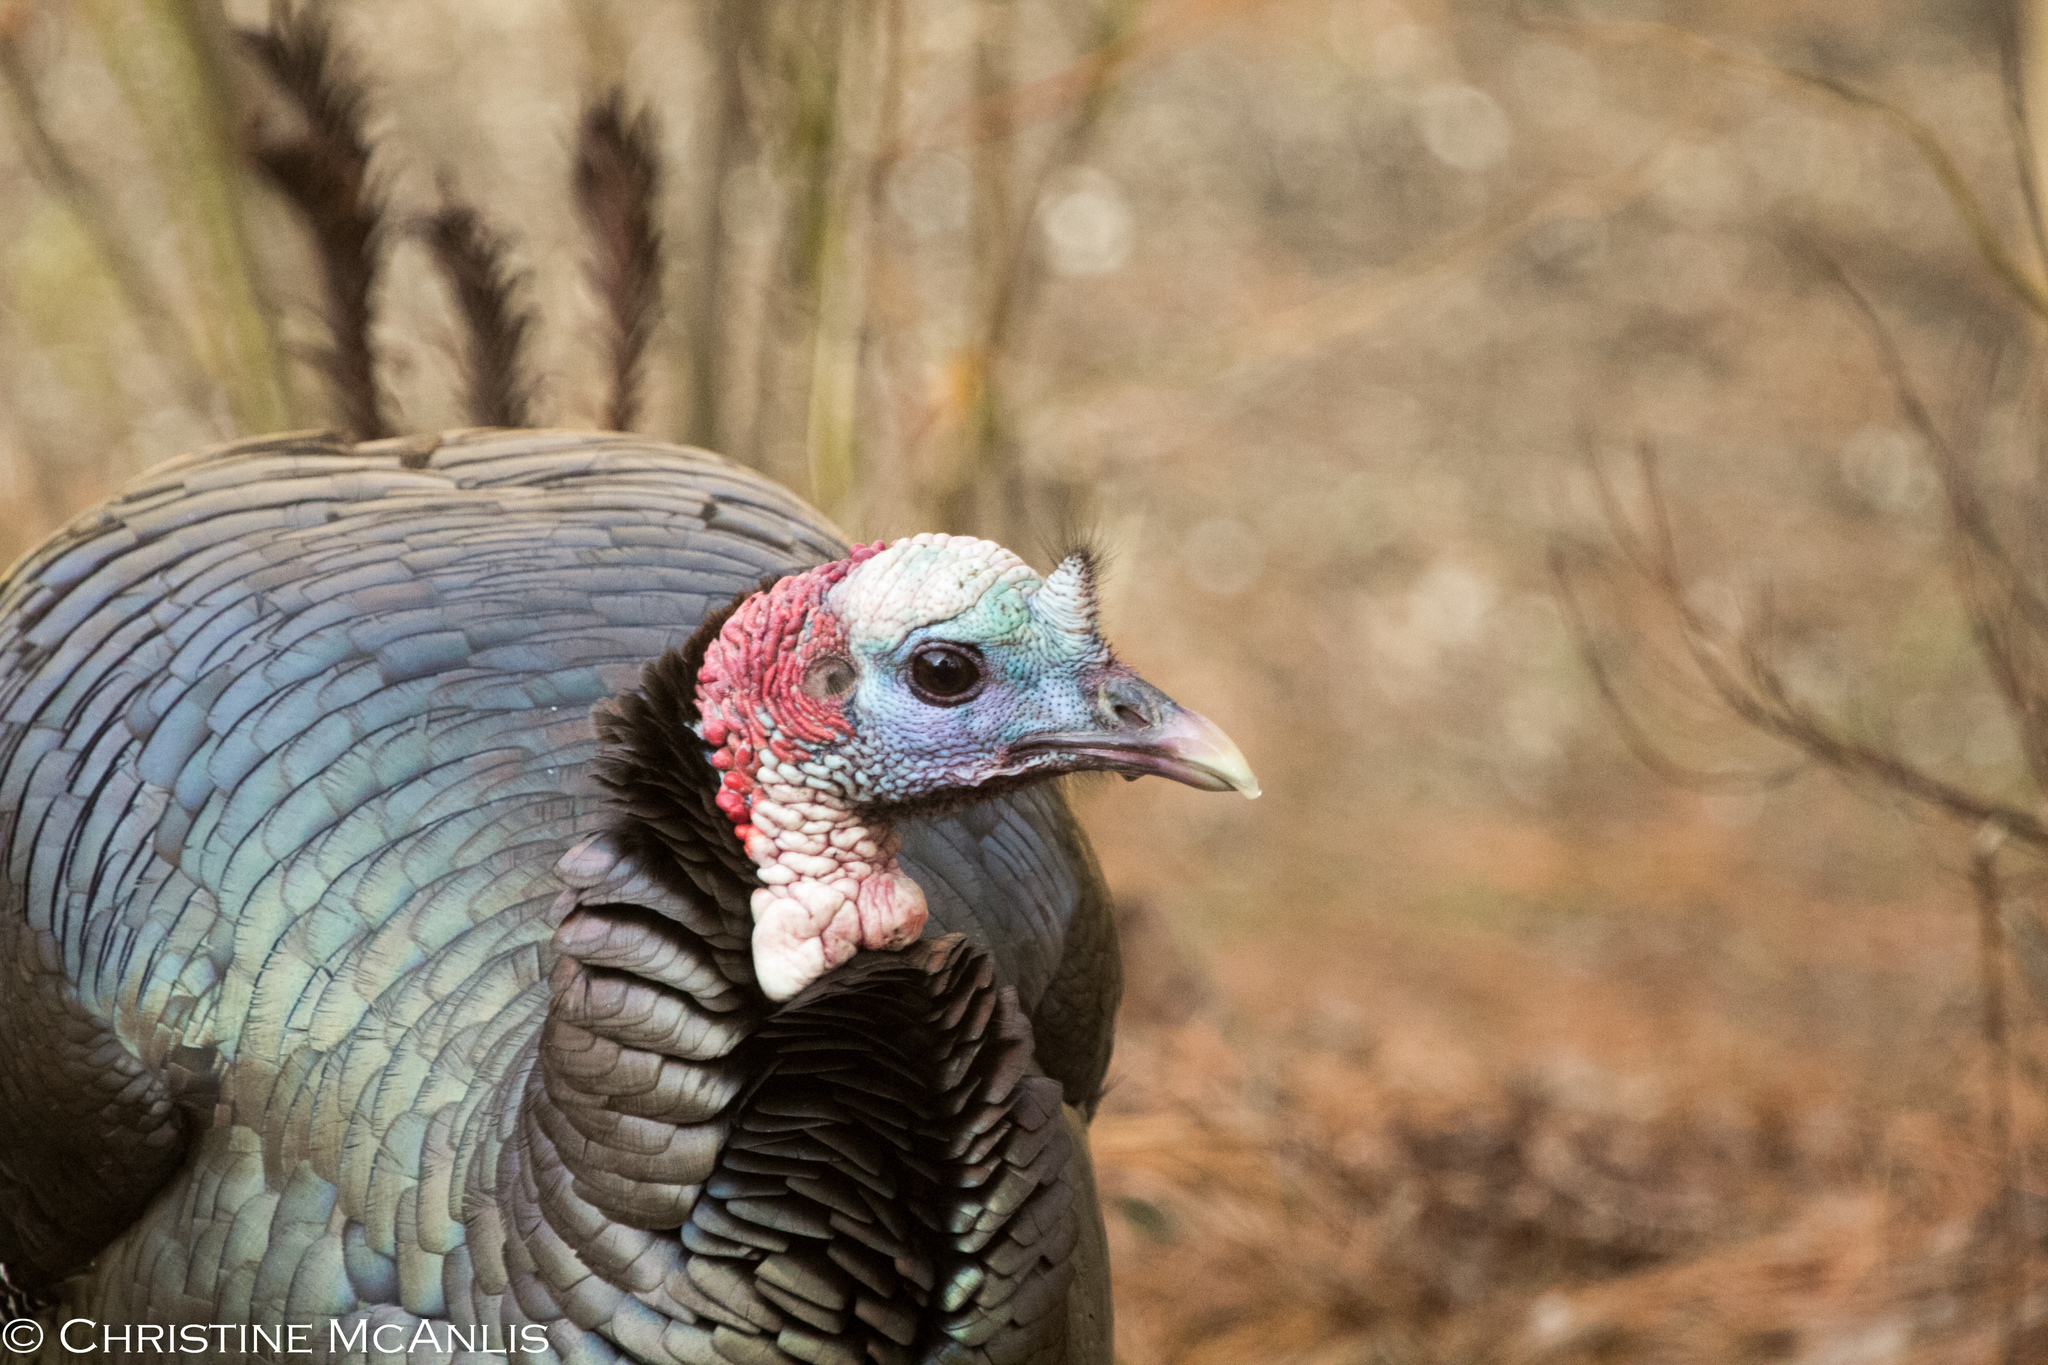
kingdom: Animalia
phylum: Chordata
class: Aves
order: Galliformes
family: Phasianidae
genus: Meleagris
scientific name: Meleagris gallopavo
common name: Wild turkey
